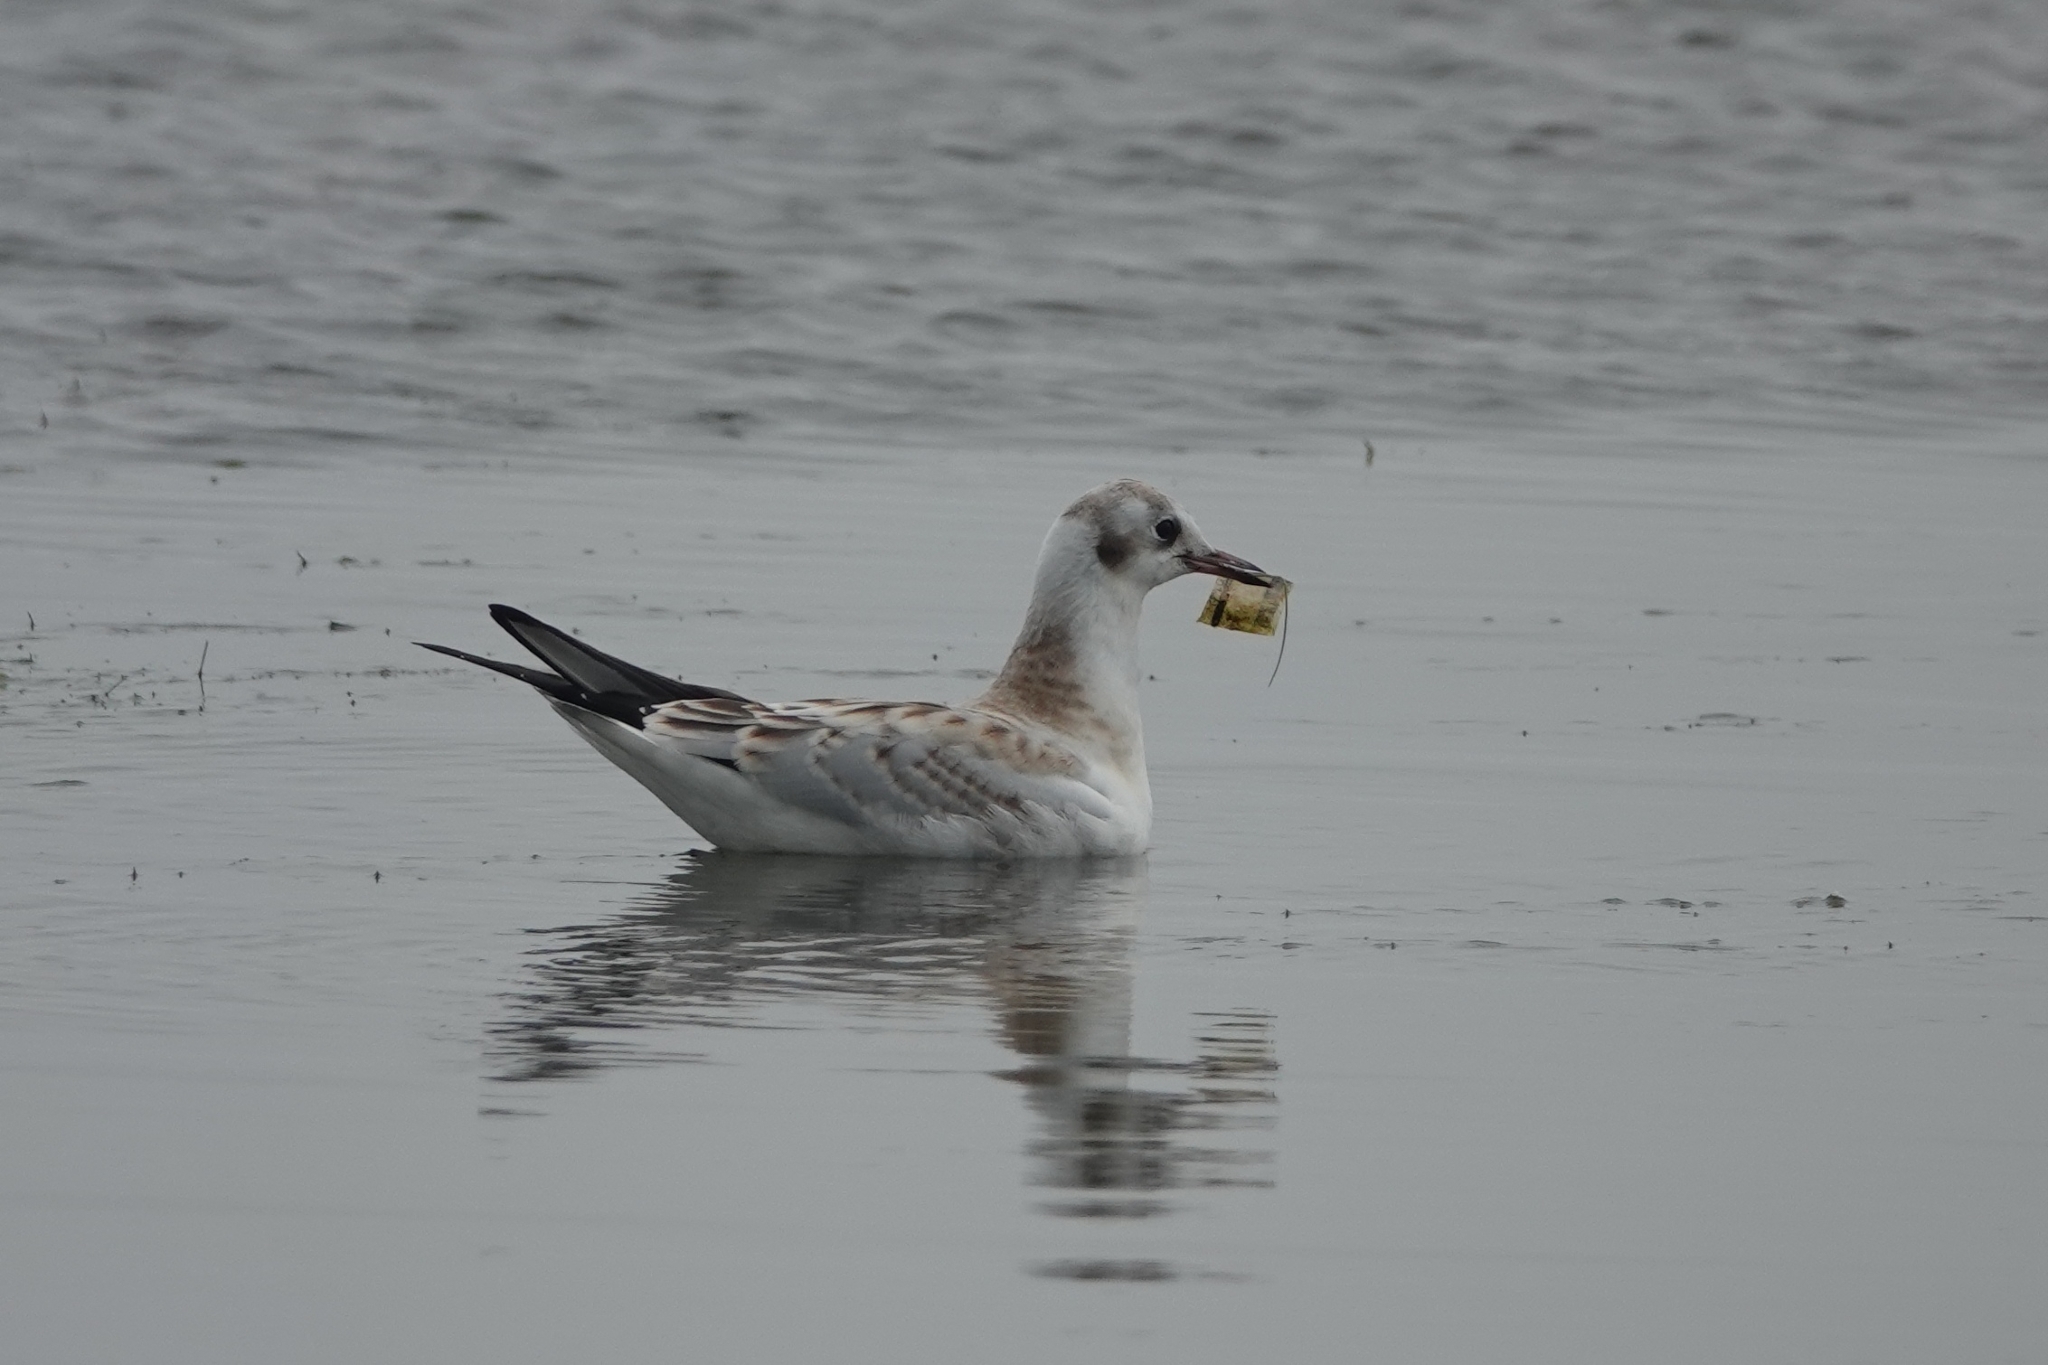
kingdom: Animalia
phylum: Chordata
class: Aves
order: Charadriiformes
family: Laridae
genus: Chroicocephalus
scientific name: Chroicocephalus ridibundus
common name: Black-headed gull
